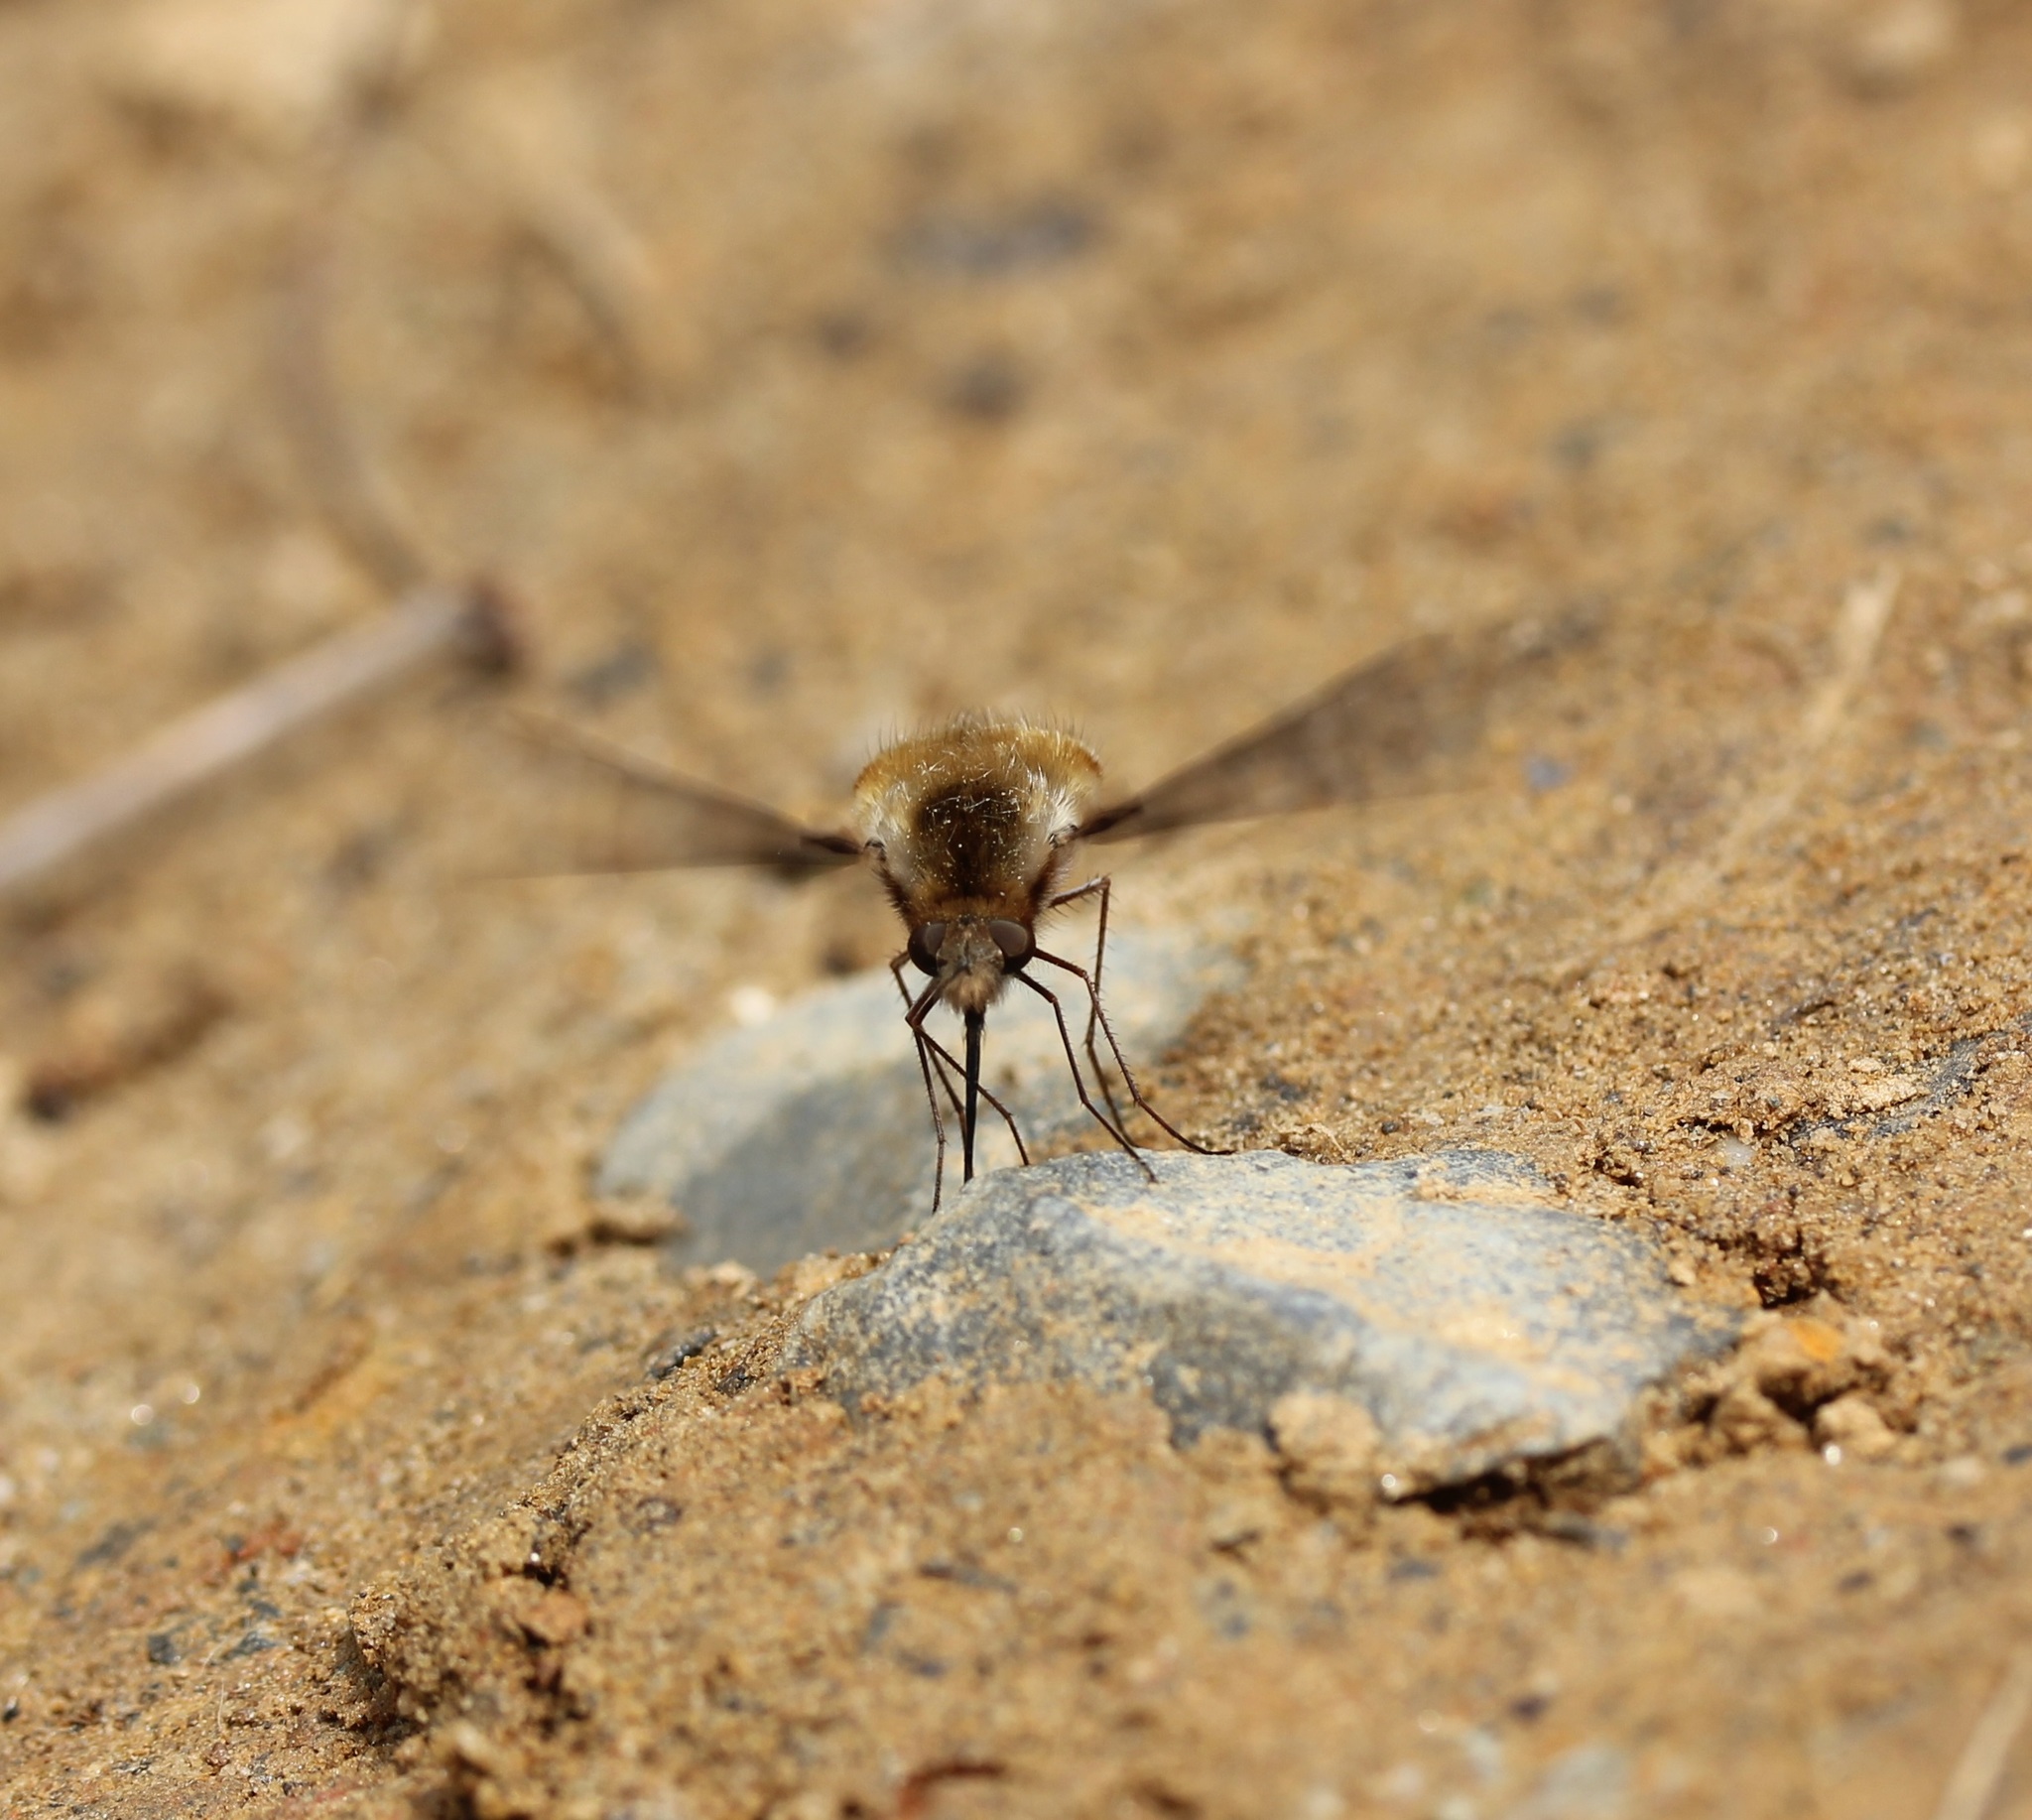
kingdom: Animalia
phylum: Arthropoda
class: Insecta
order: Diptera
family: Bombyliidae
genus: Bombylius
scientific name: Bombylius major
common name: Bee fly
